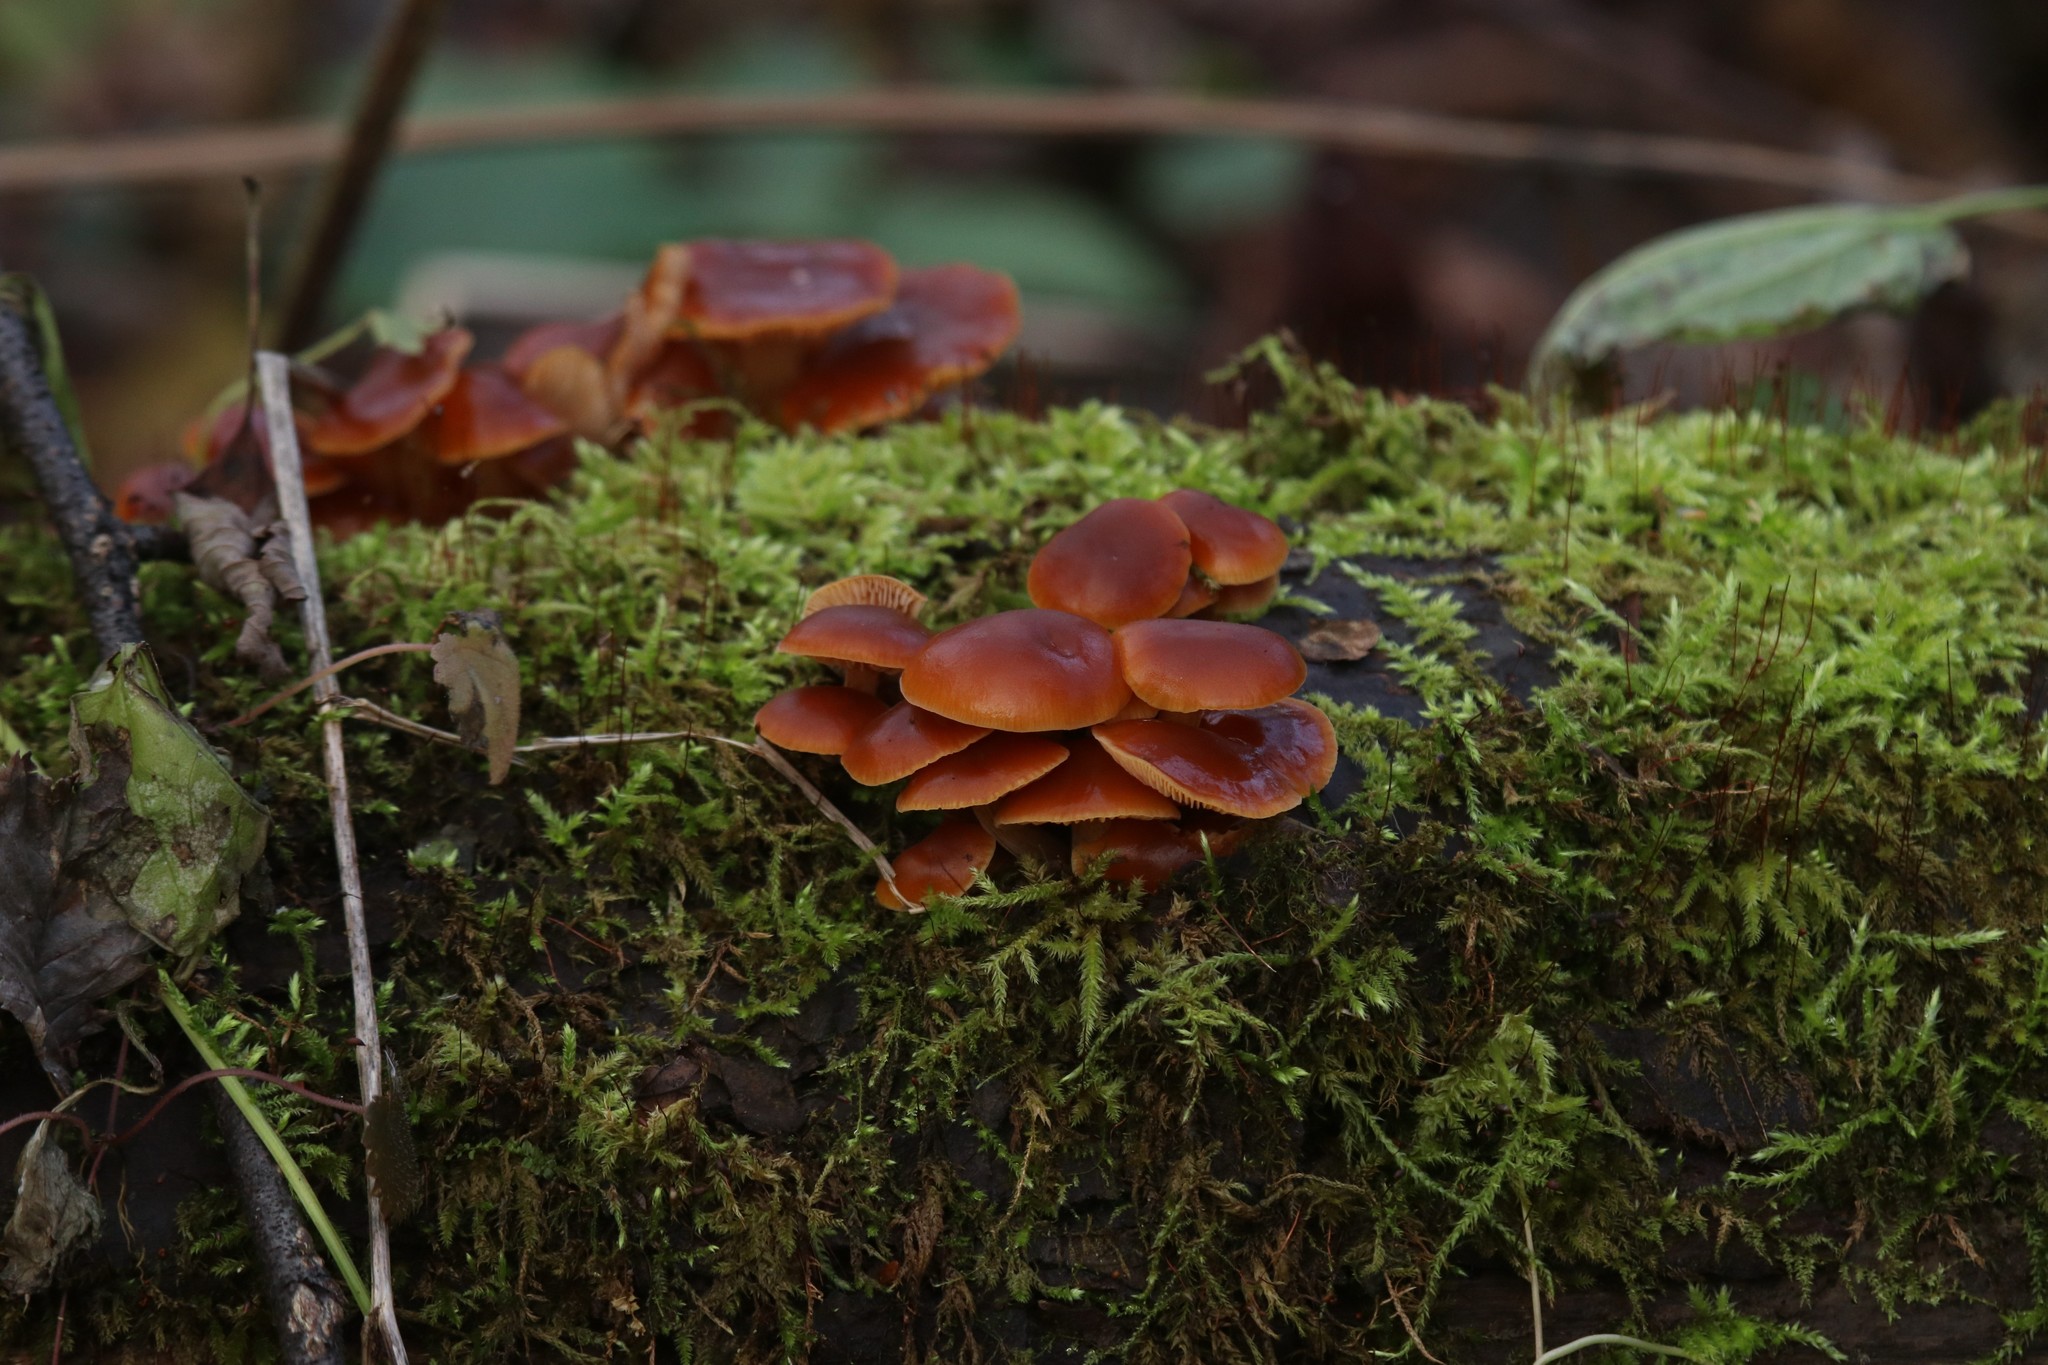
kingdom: Fungi
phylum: Basidiomycota
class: Agaricomycetes
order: Agaricales
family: Physalacriaceae
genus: Flammulina
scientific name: Flammulina
